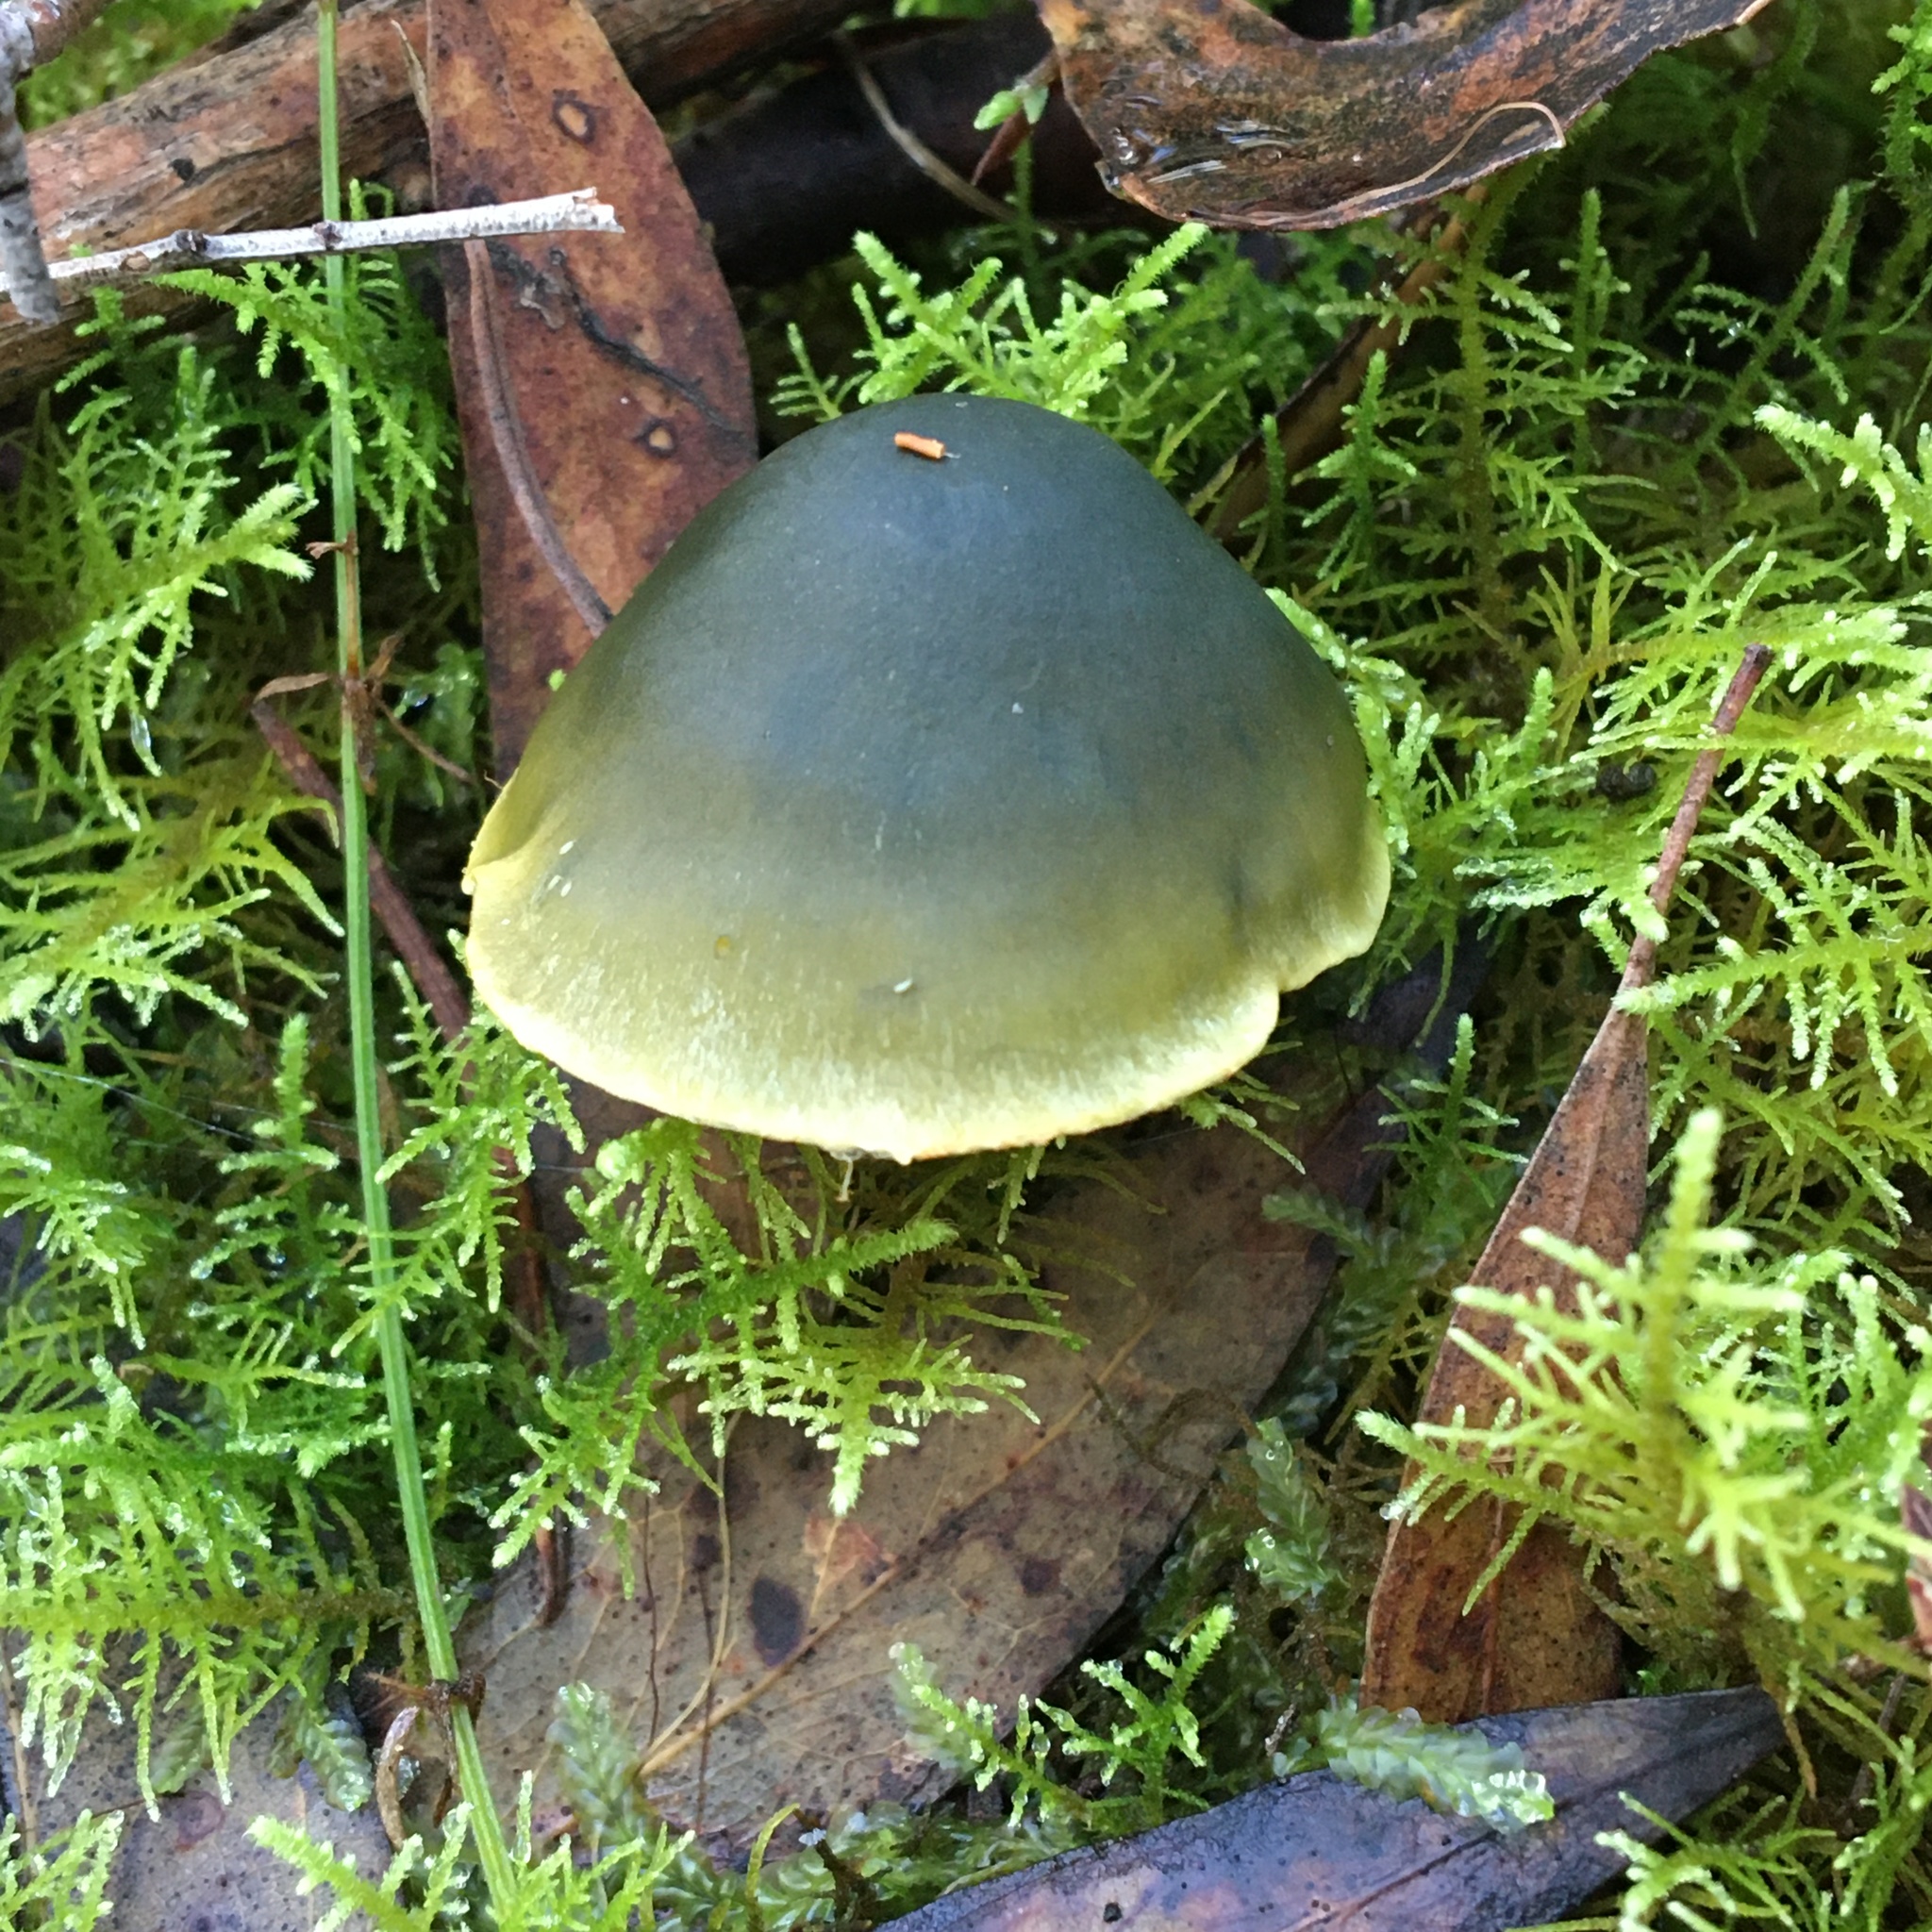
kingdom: Fungi
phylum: Basidiomycota
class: Agaricomycetes
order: Agaricales
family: Cortinariaceae
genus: Cortinarius
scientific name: Cortinarius austrovenetus
